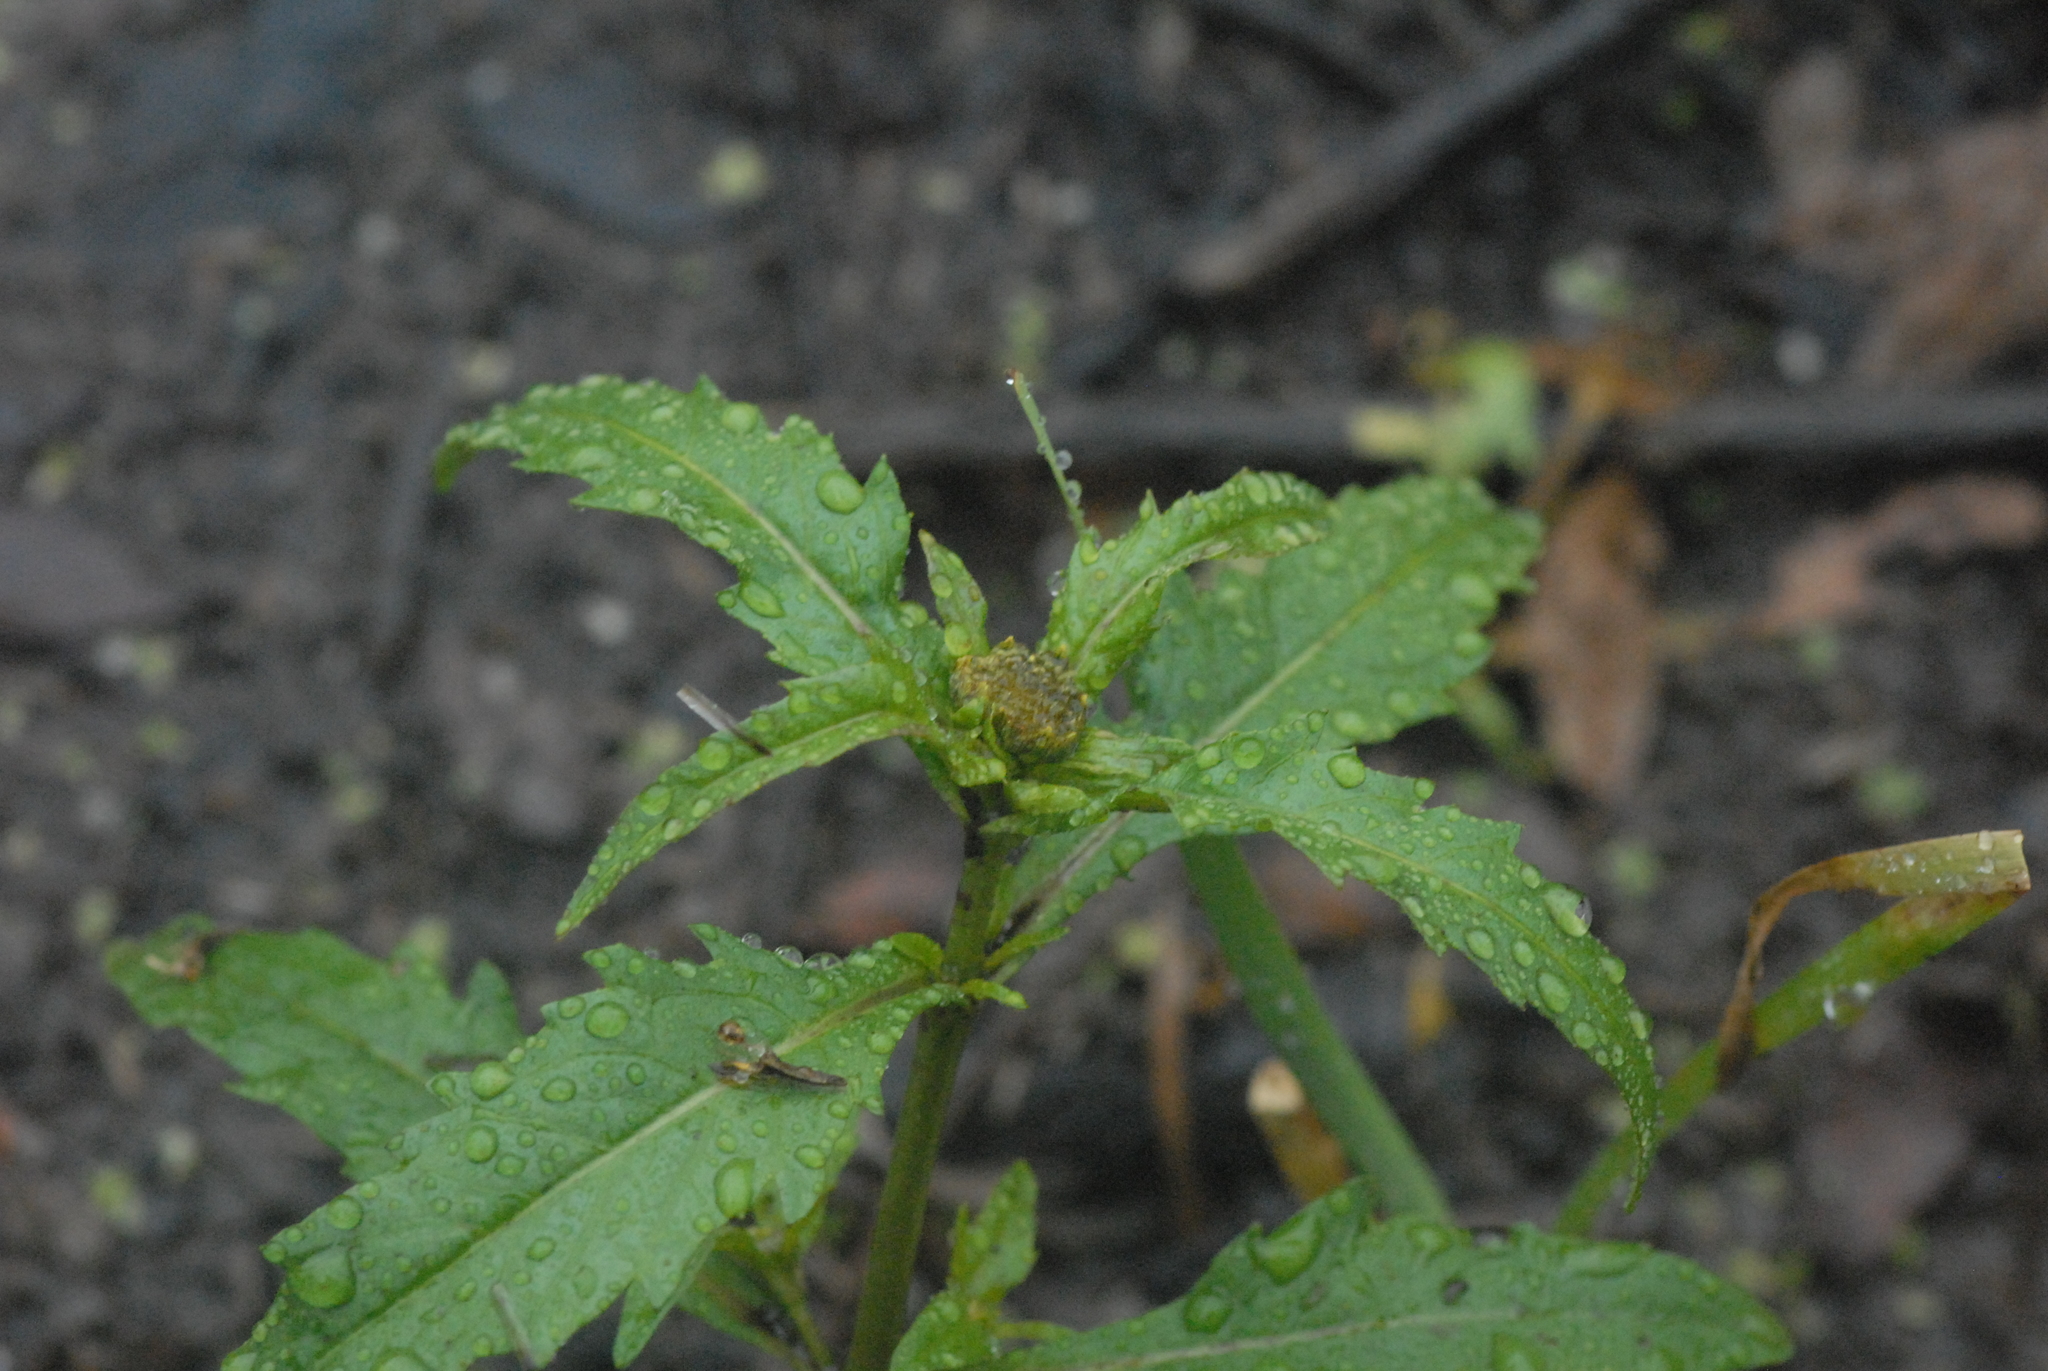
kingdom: Plantae
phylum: Tracheophyta
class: Magnoliopsida
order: Asterales
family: Asteraceae
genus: Bidens
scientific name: Bidens cernua
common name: Nodding bur-marigold
